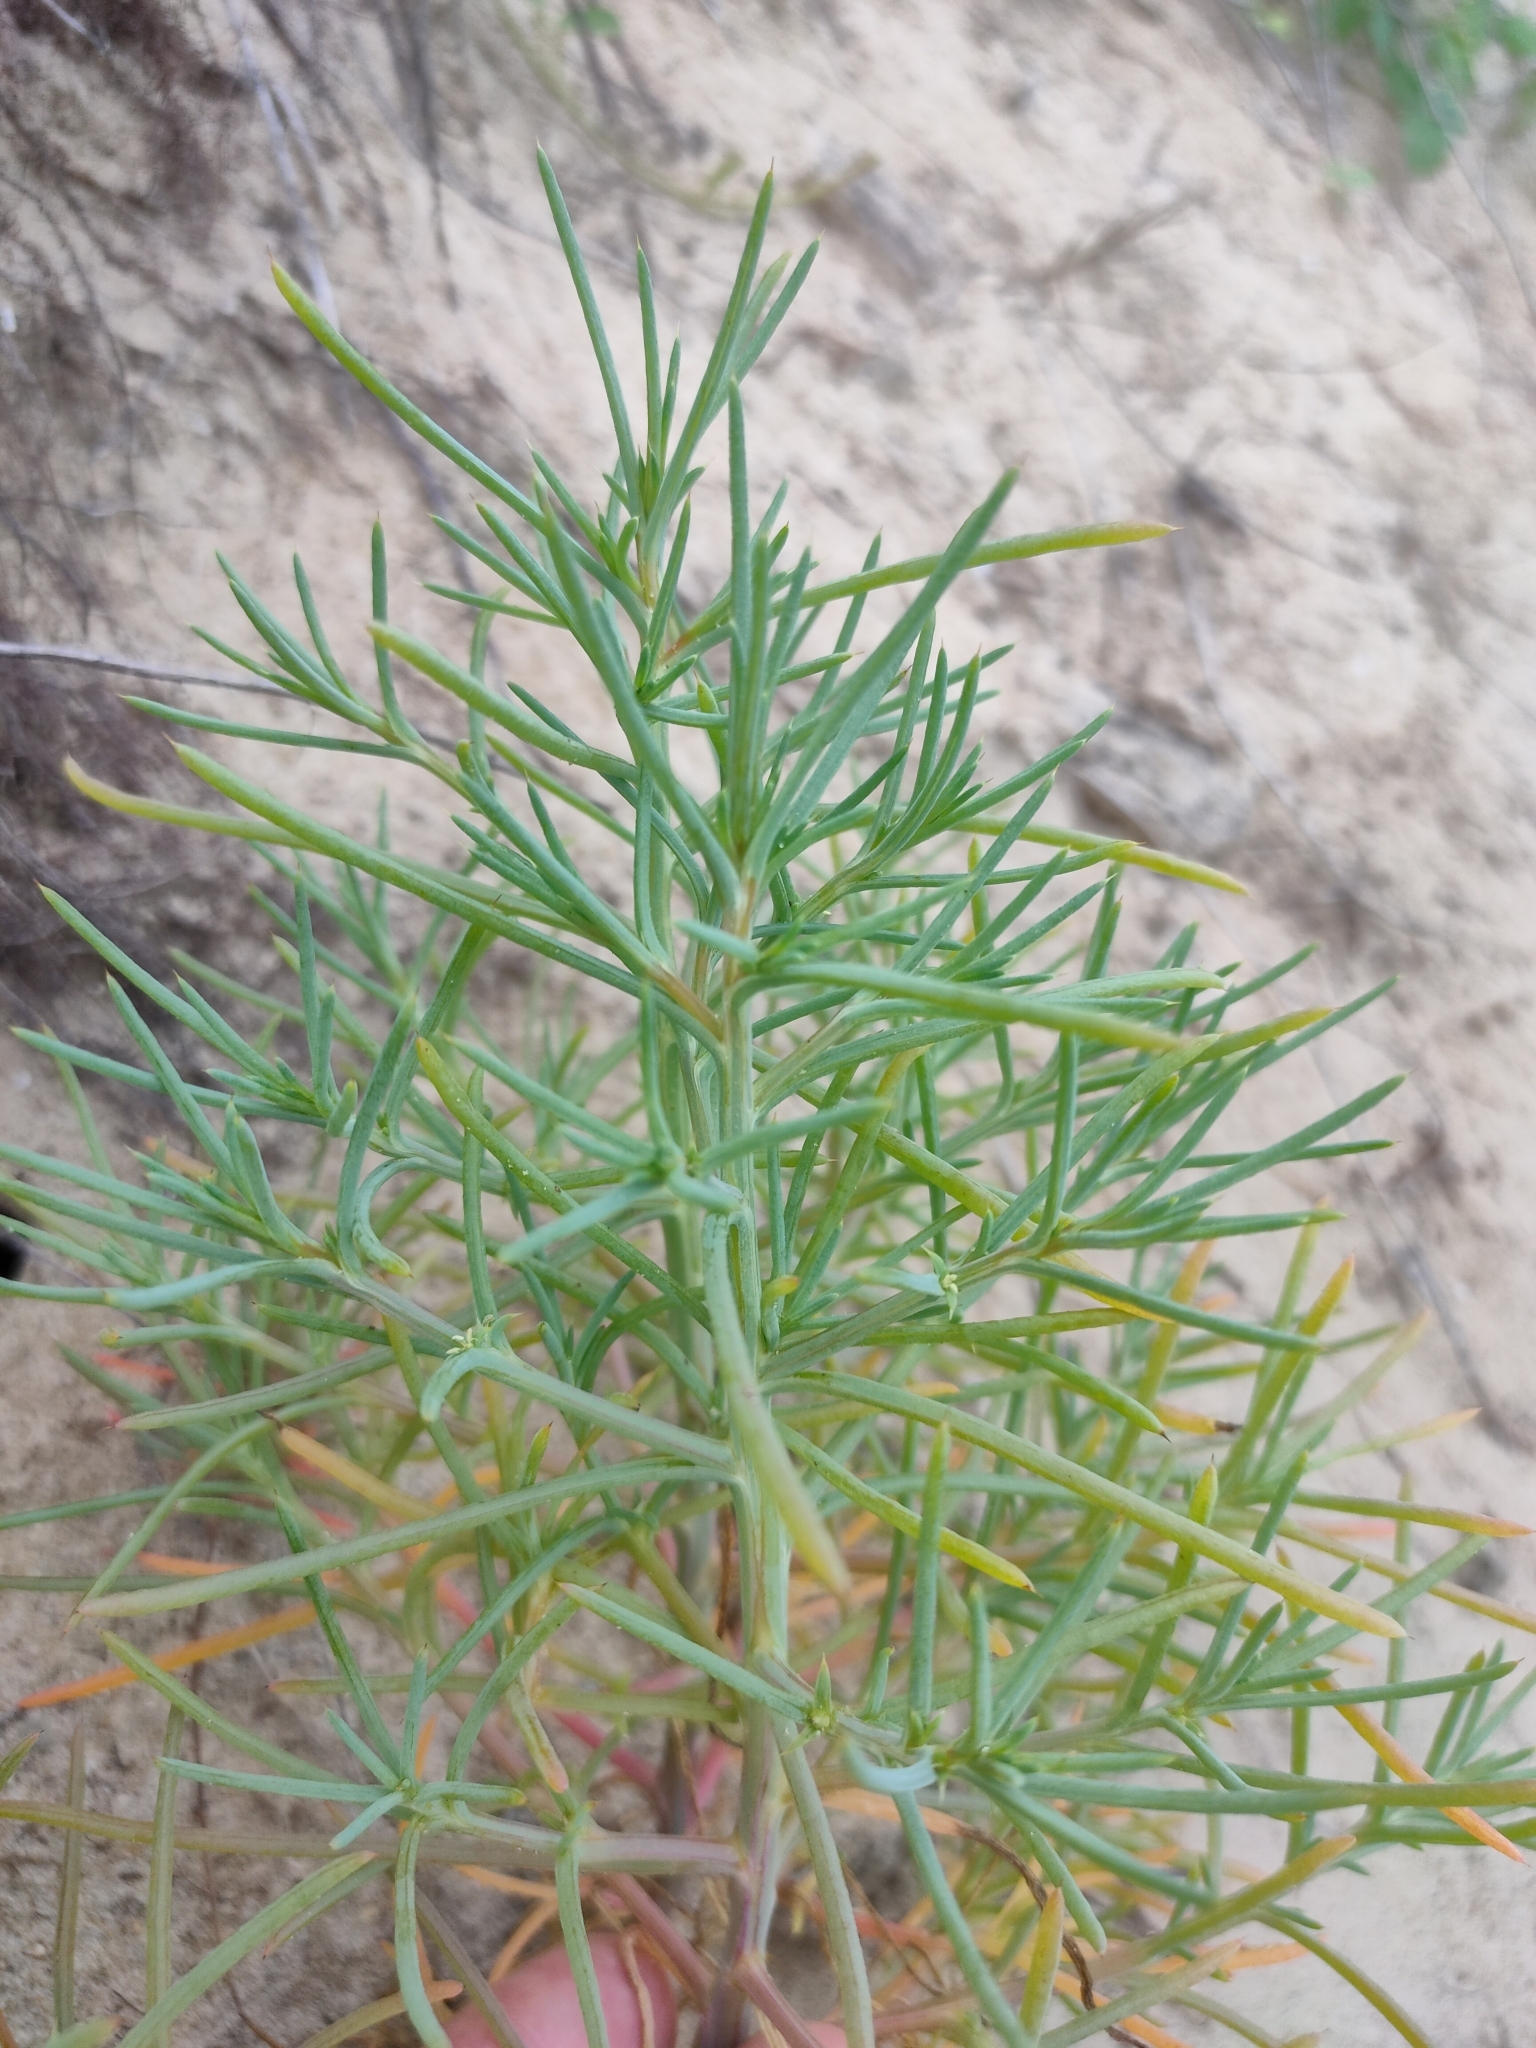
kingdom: Plantae
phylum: Tracheophyta
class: Magnoliopsida
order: Caryophyllales
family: Amaranthaceae
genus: Salsola
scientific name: Salsola australis
